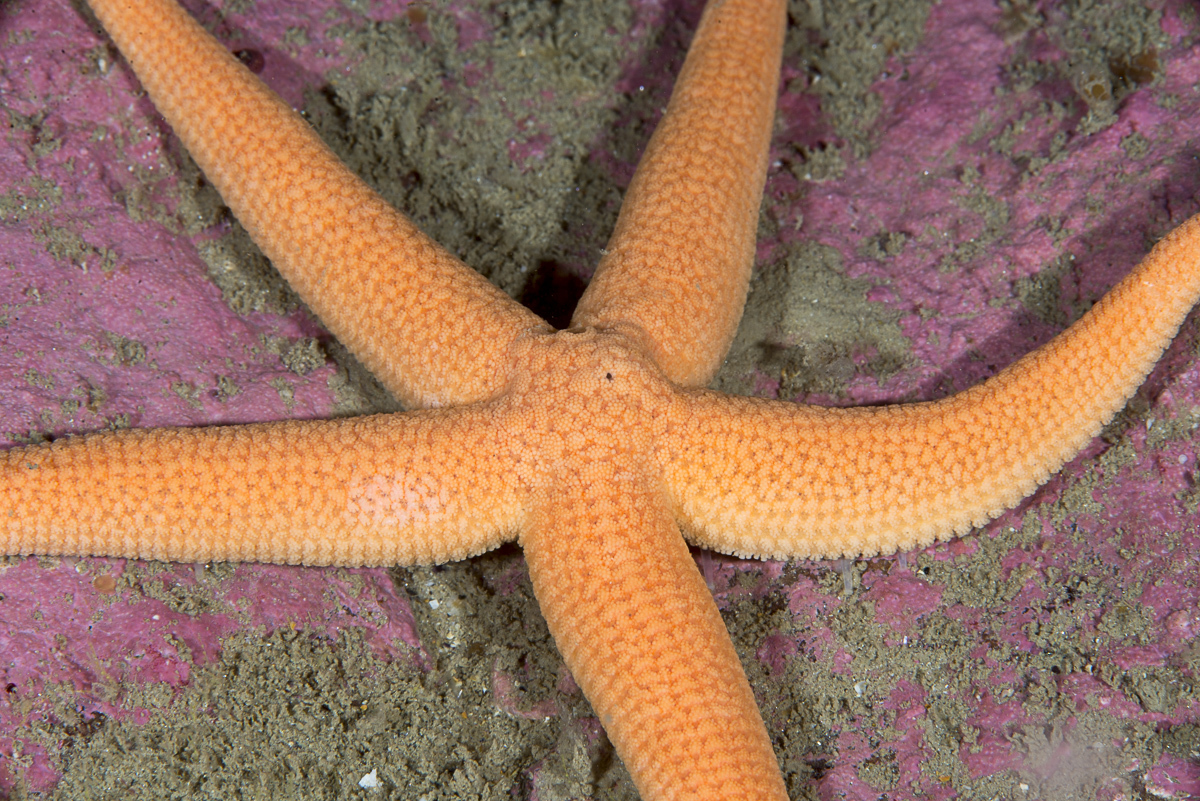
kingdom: Animalia
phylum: Echinodermata
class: Asteroidea
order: Forcipulatida
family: Stichasteridae
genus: Stichastrella
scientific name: Stichastrella rosea
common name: Rosy starfish
